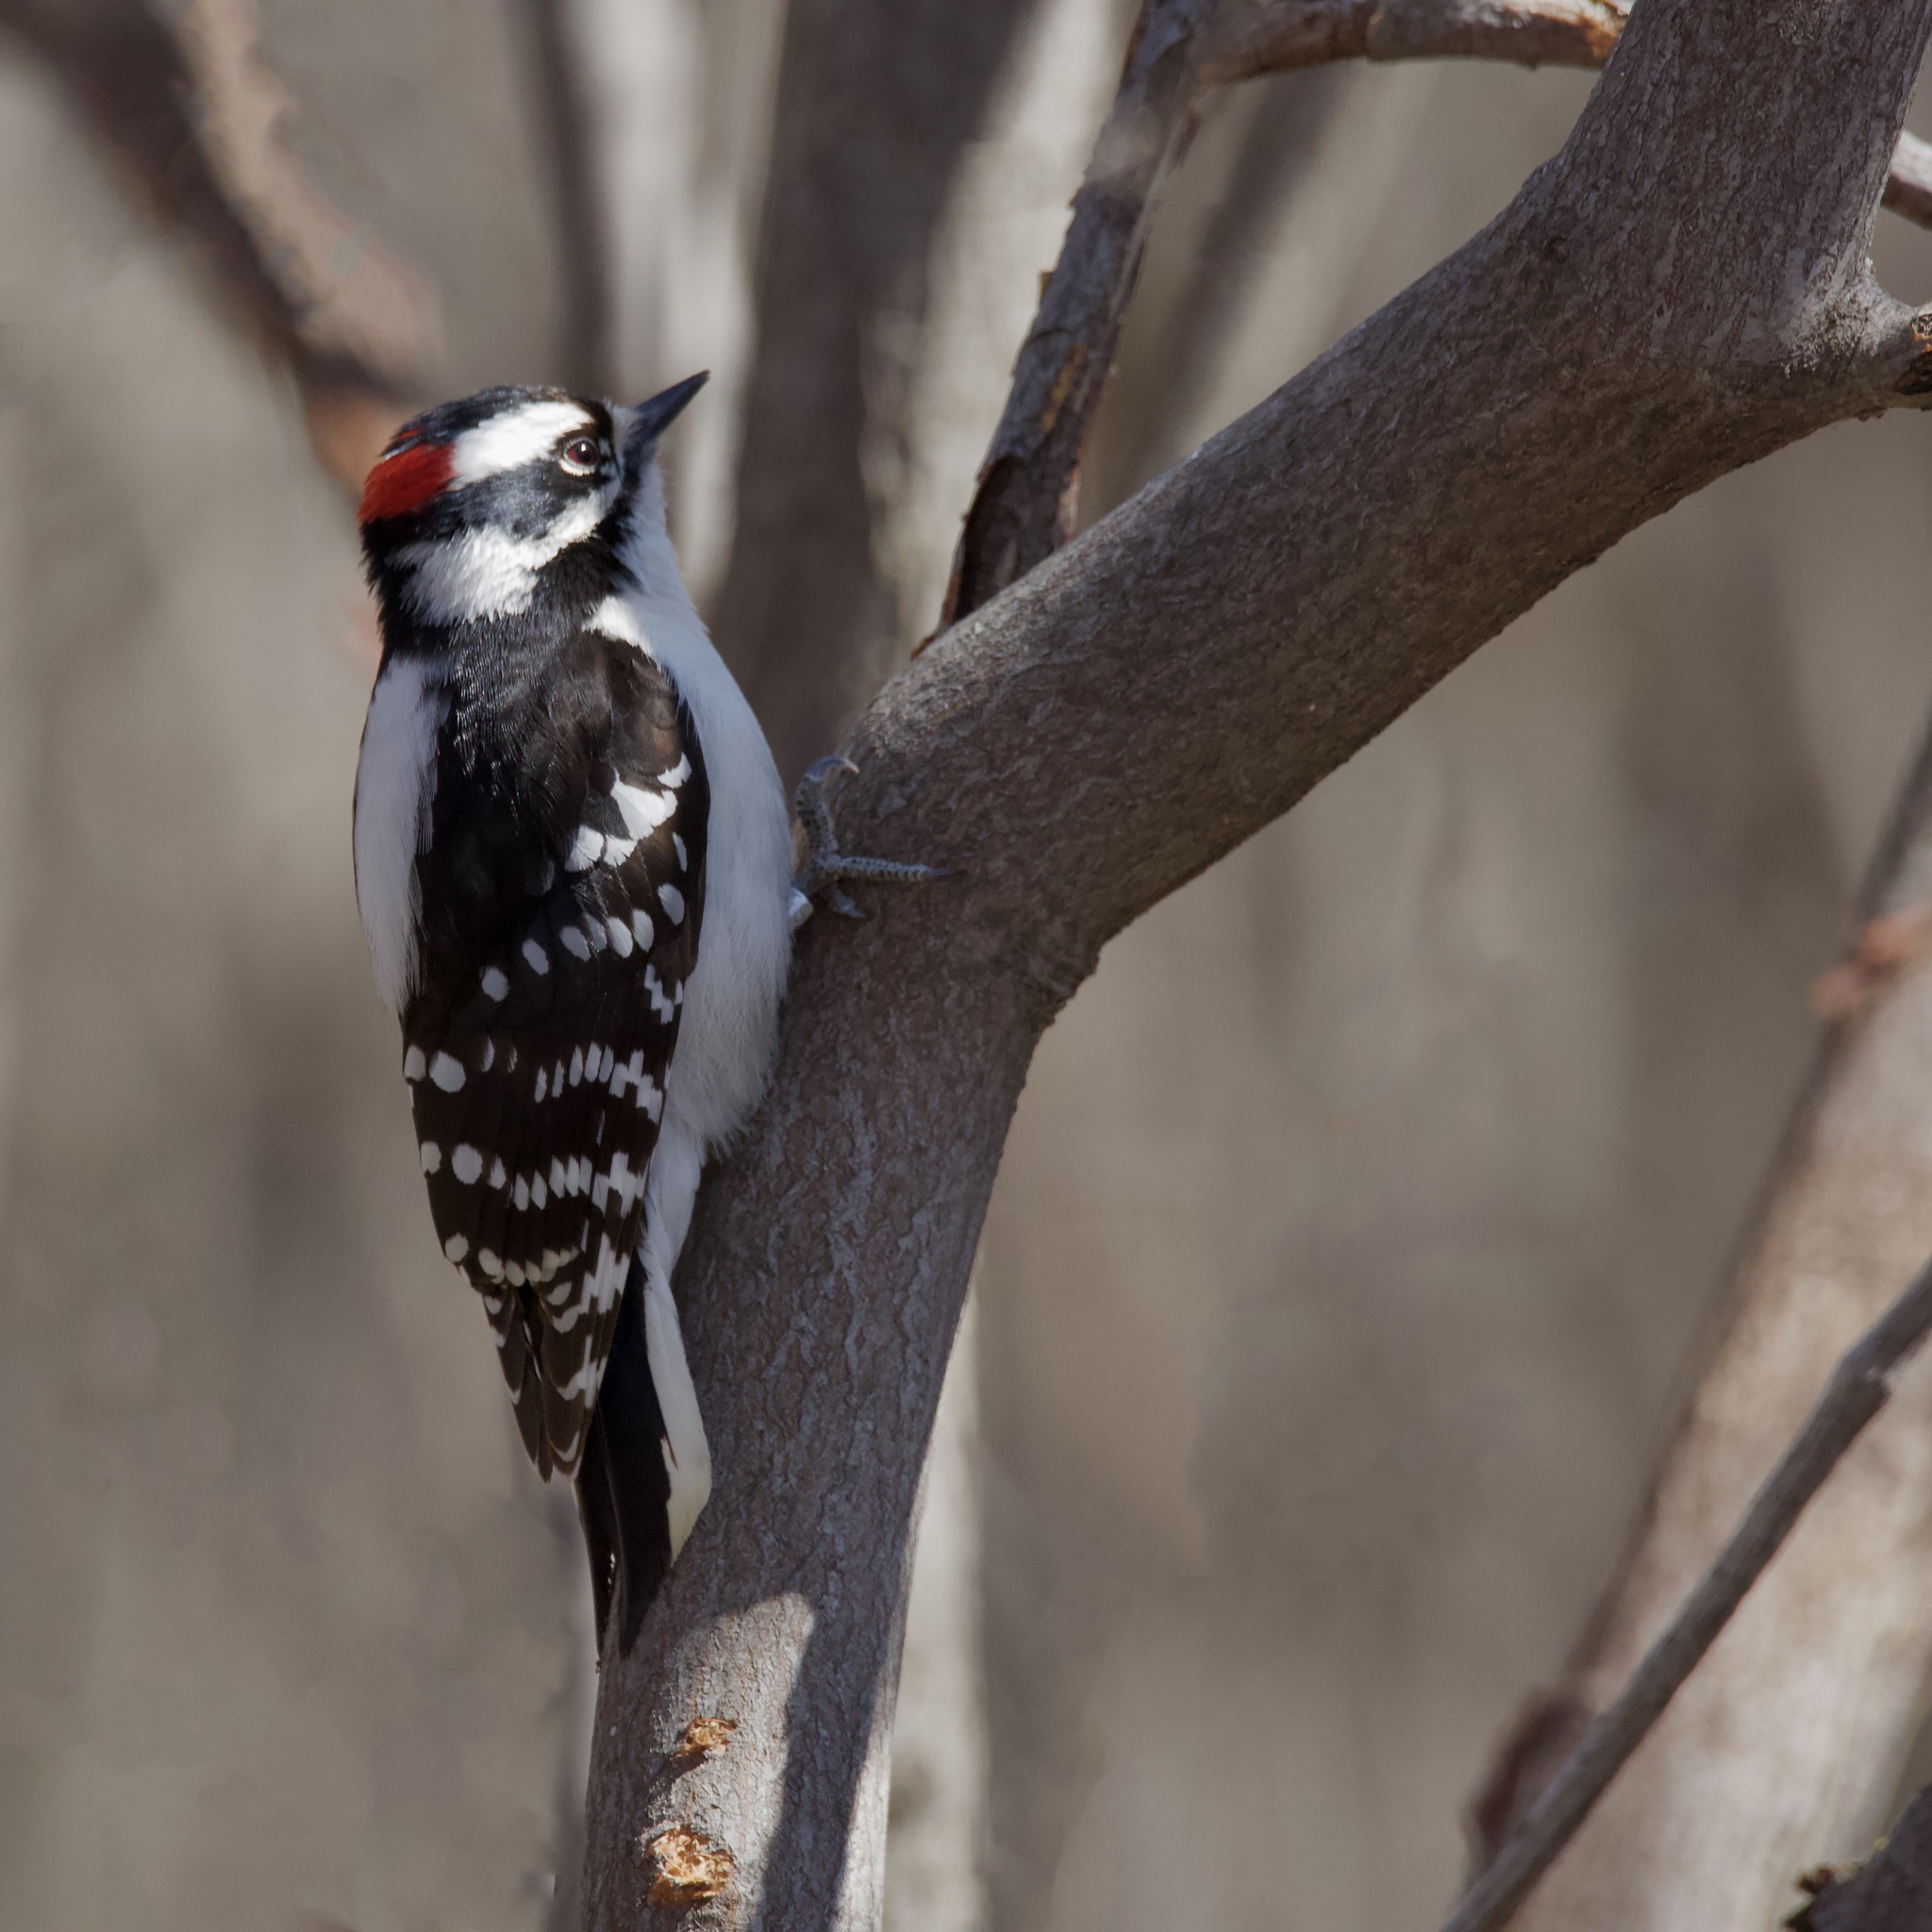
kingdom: Animalia
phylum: Chordata
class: Aves
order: Piciformes
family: Picidae
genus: Dryobates
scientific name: Dryobates pubescens
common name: Downy woodpecker
